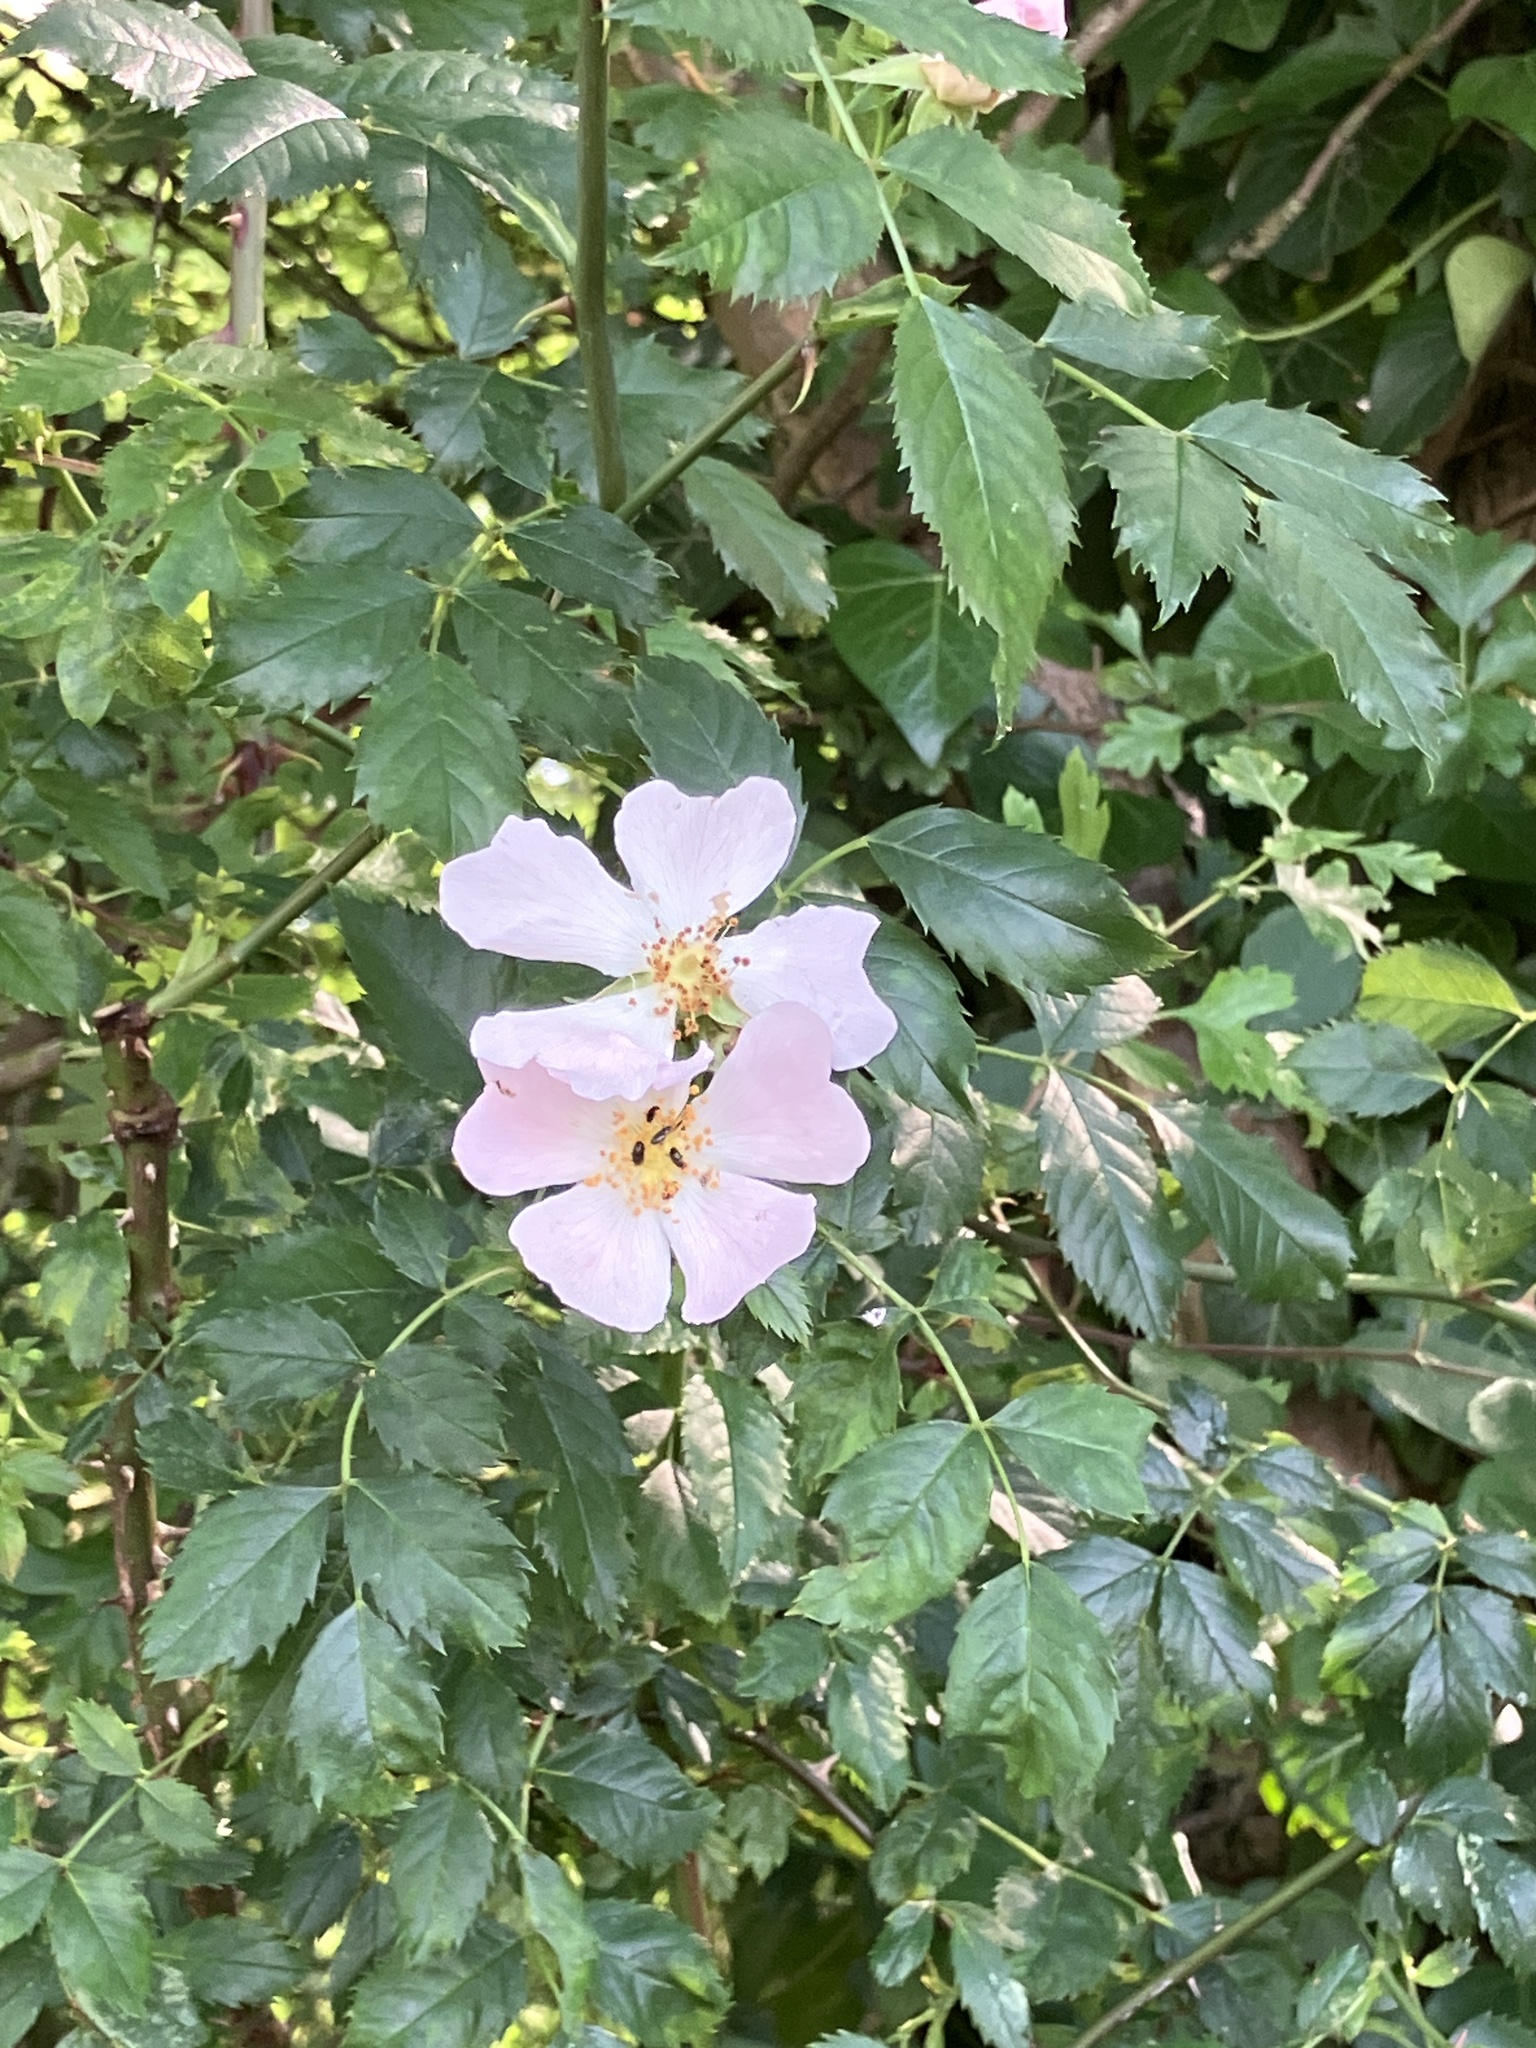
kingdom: Plantae
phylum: Tracheophyta
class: Magnoliopsida
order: Rosales
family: Rosaceae
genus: Rosa
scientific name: Rosa canina
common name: Dog rose
